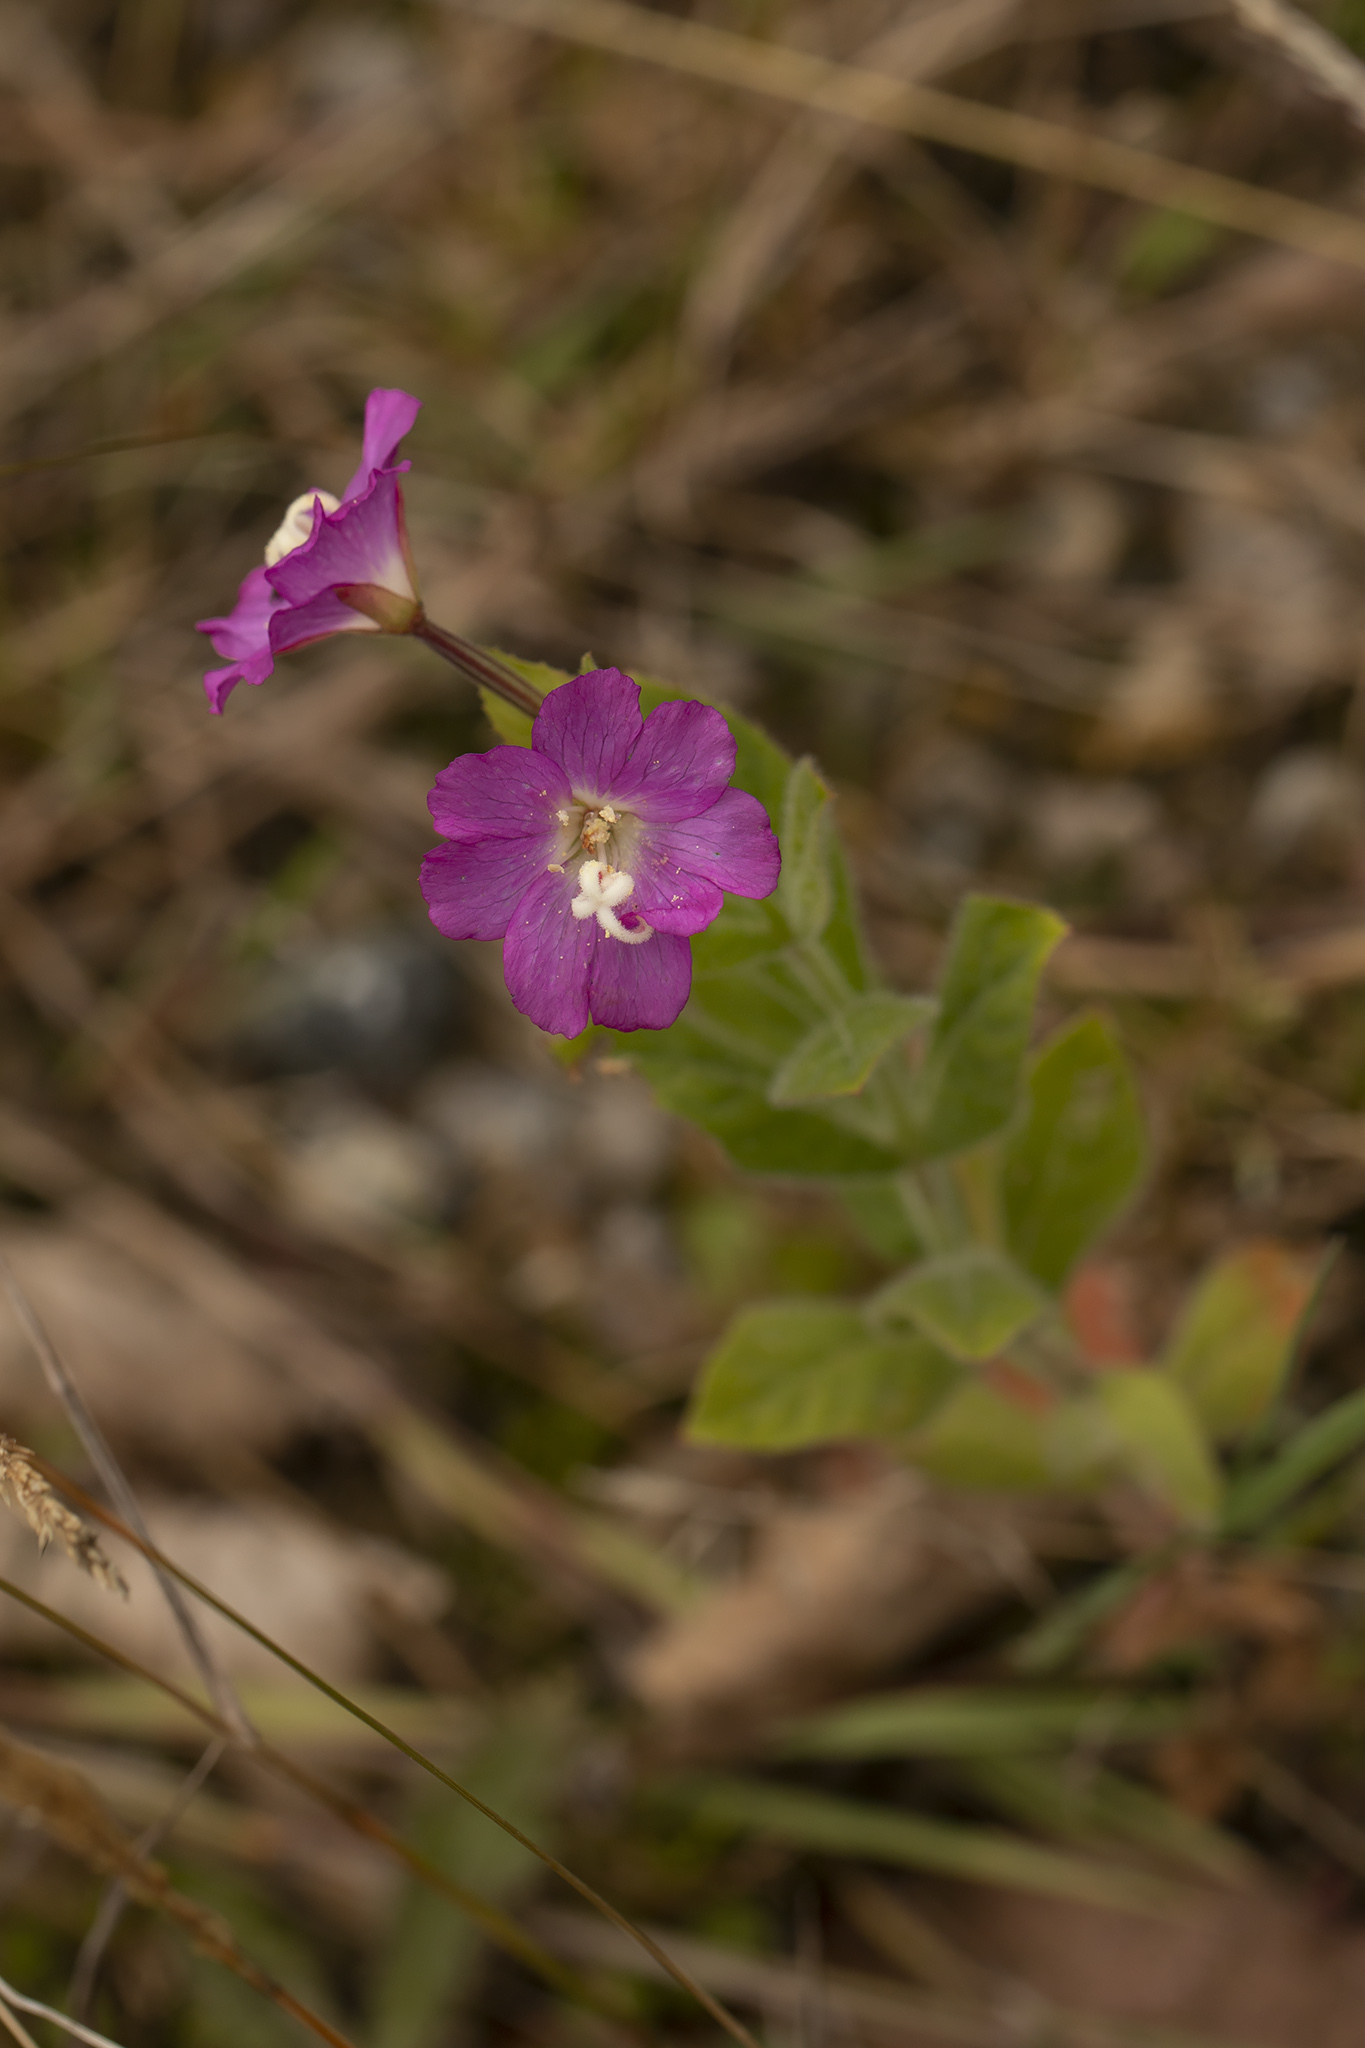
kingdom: Plantae
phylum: Tracheophyta
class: Magnoliopsida
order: Myrtales
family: Onagraceae
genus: Epilobium
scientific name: Epilobium hirsutum
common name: Great willowherb
